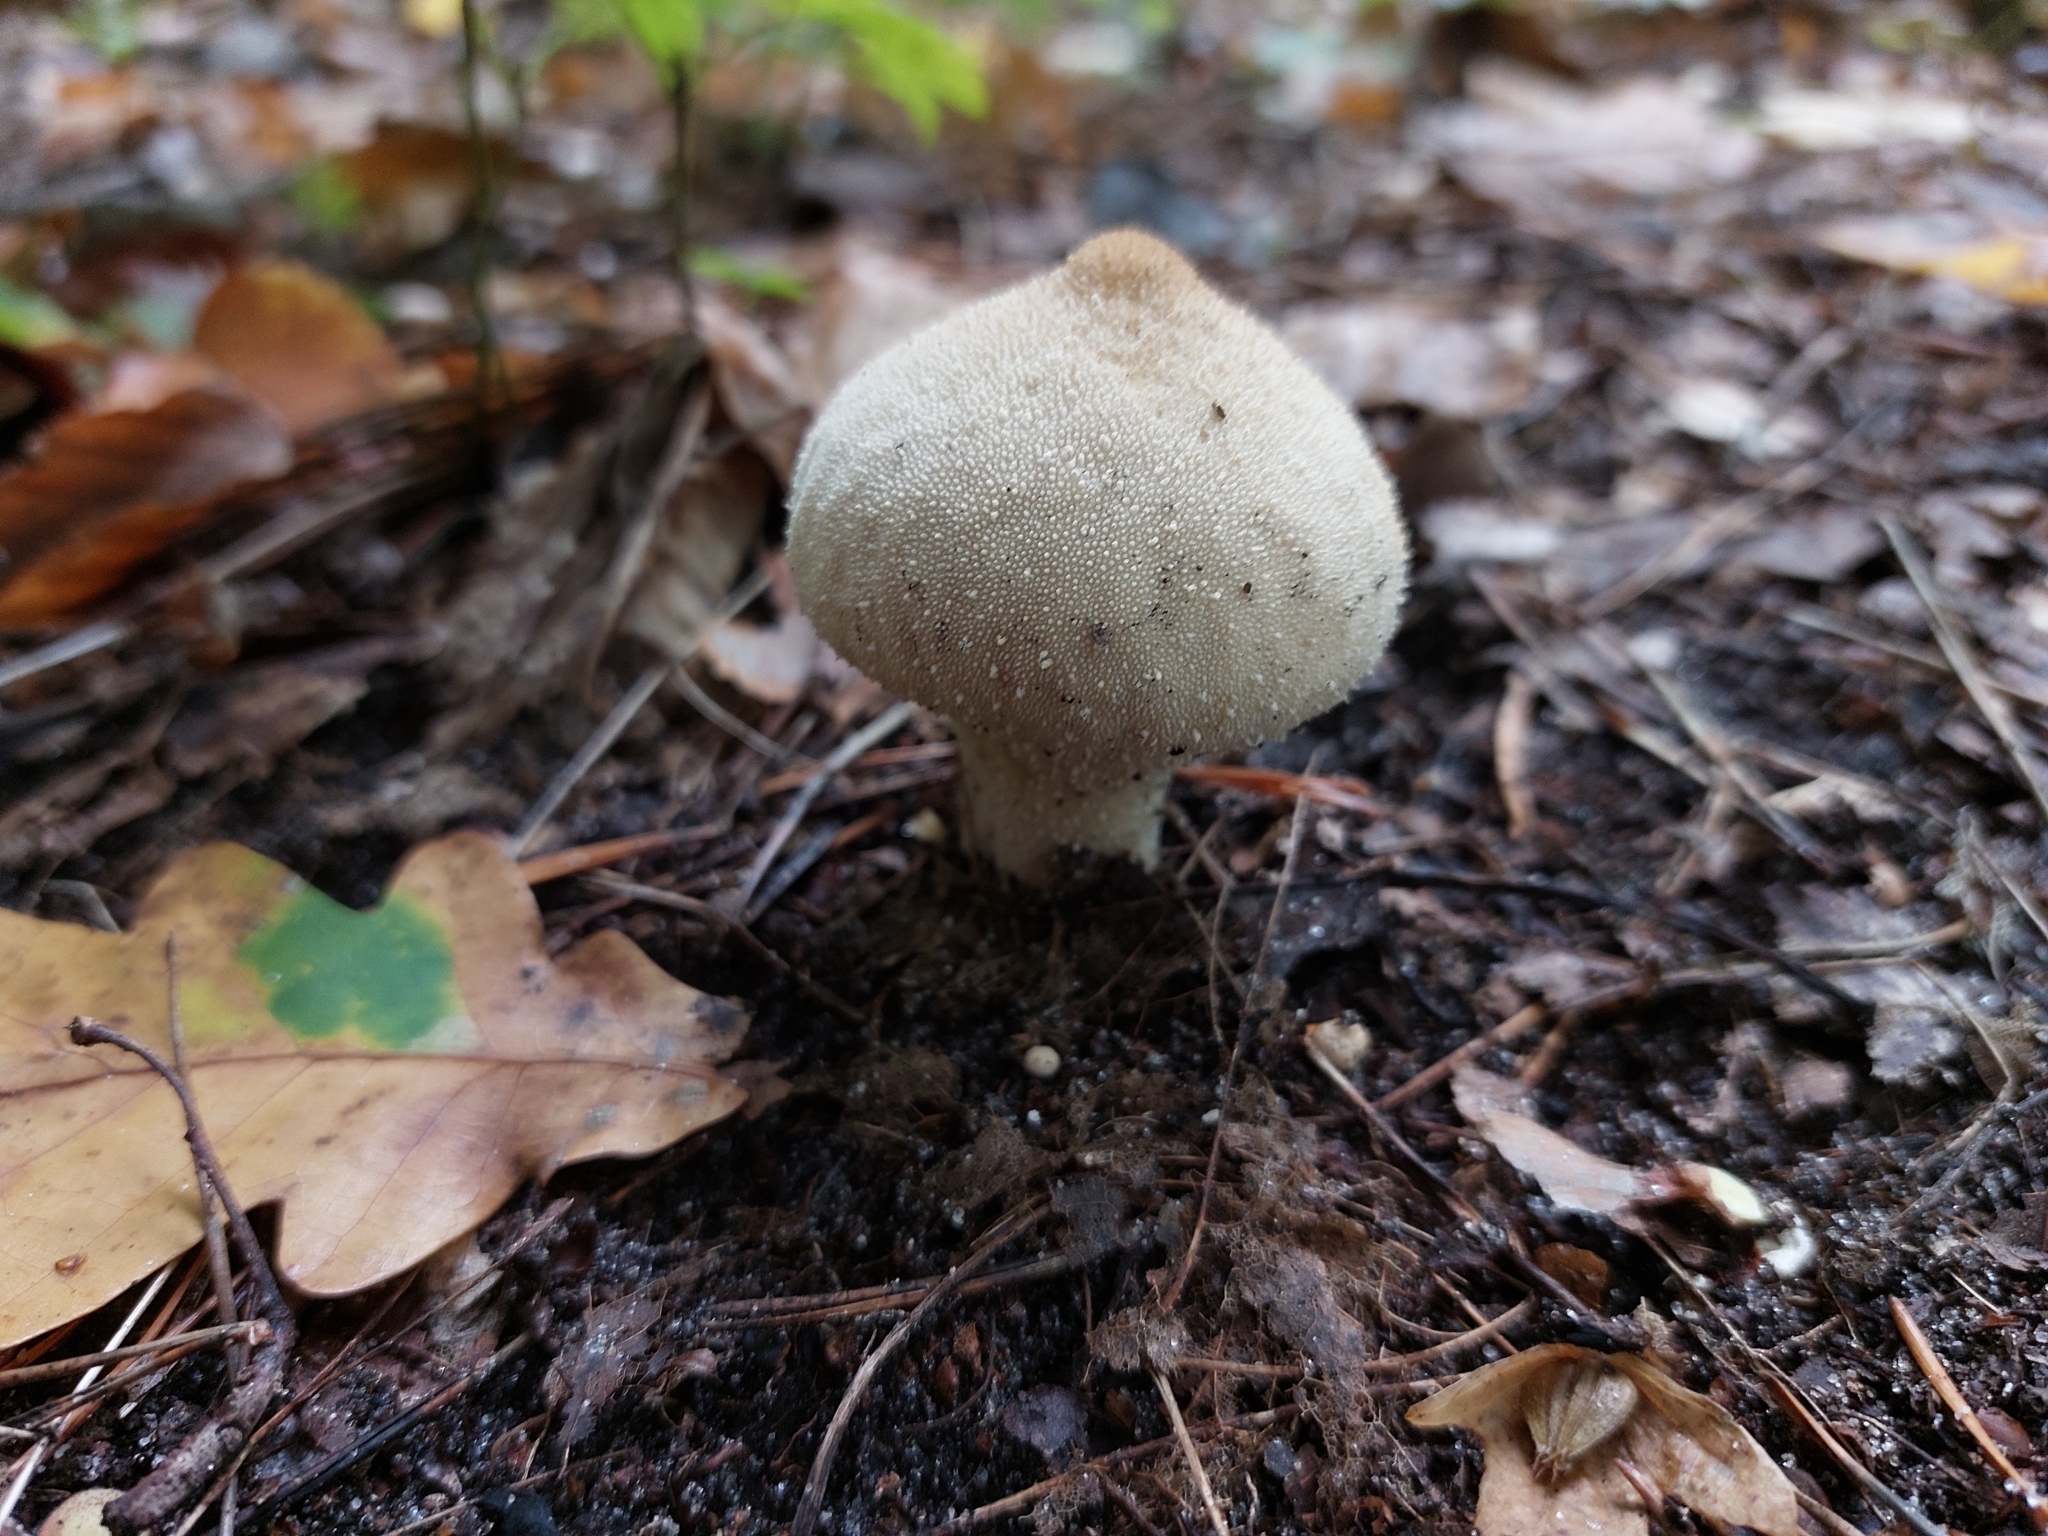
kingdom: Fungi
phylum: Basidiomycota
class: Agaricomycetes
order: Agaricales
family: Lycoperdaceae
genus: Lycoperdon
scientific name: Lycoperdon perlatum
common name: Common puffball
